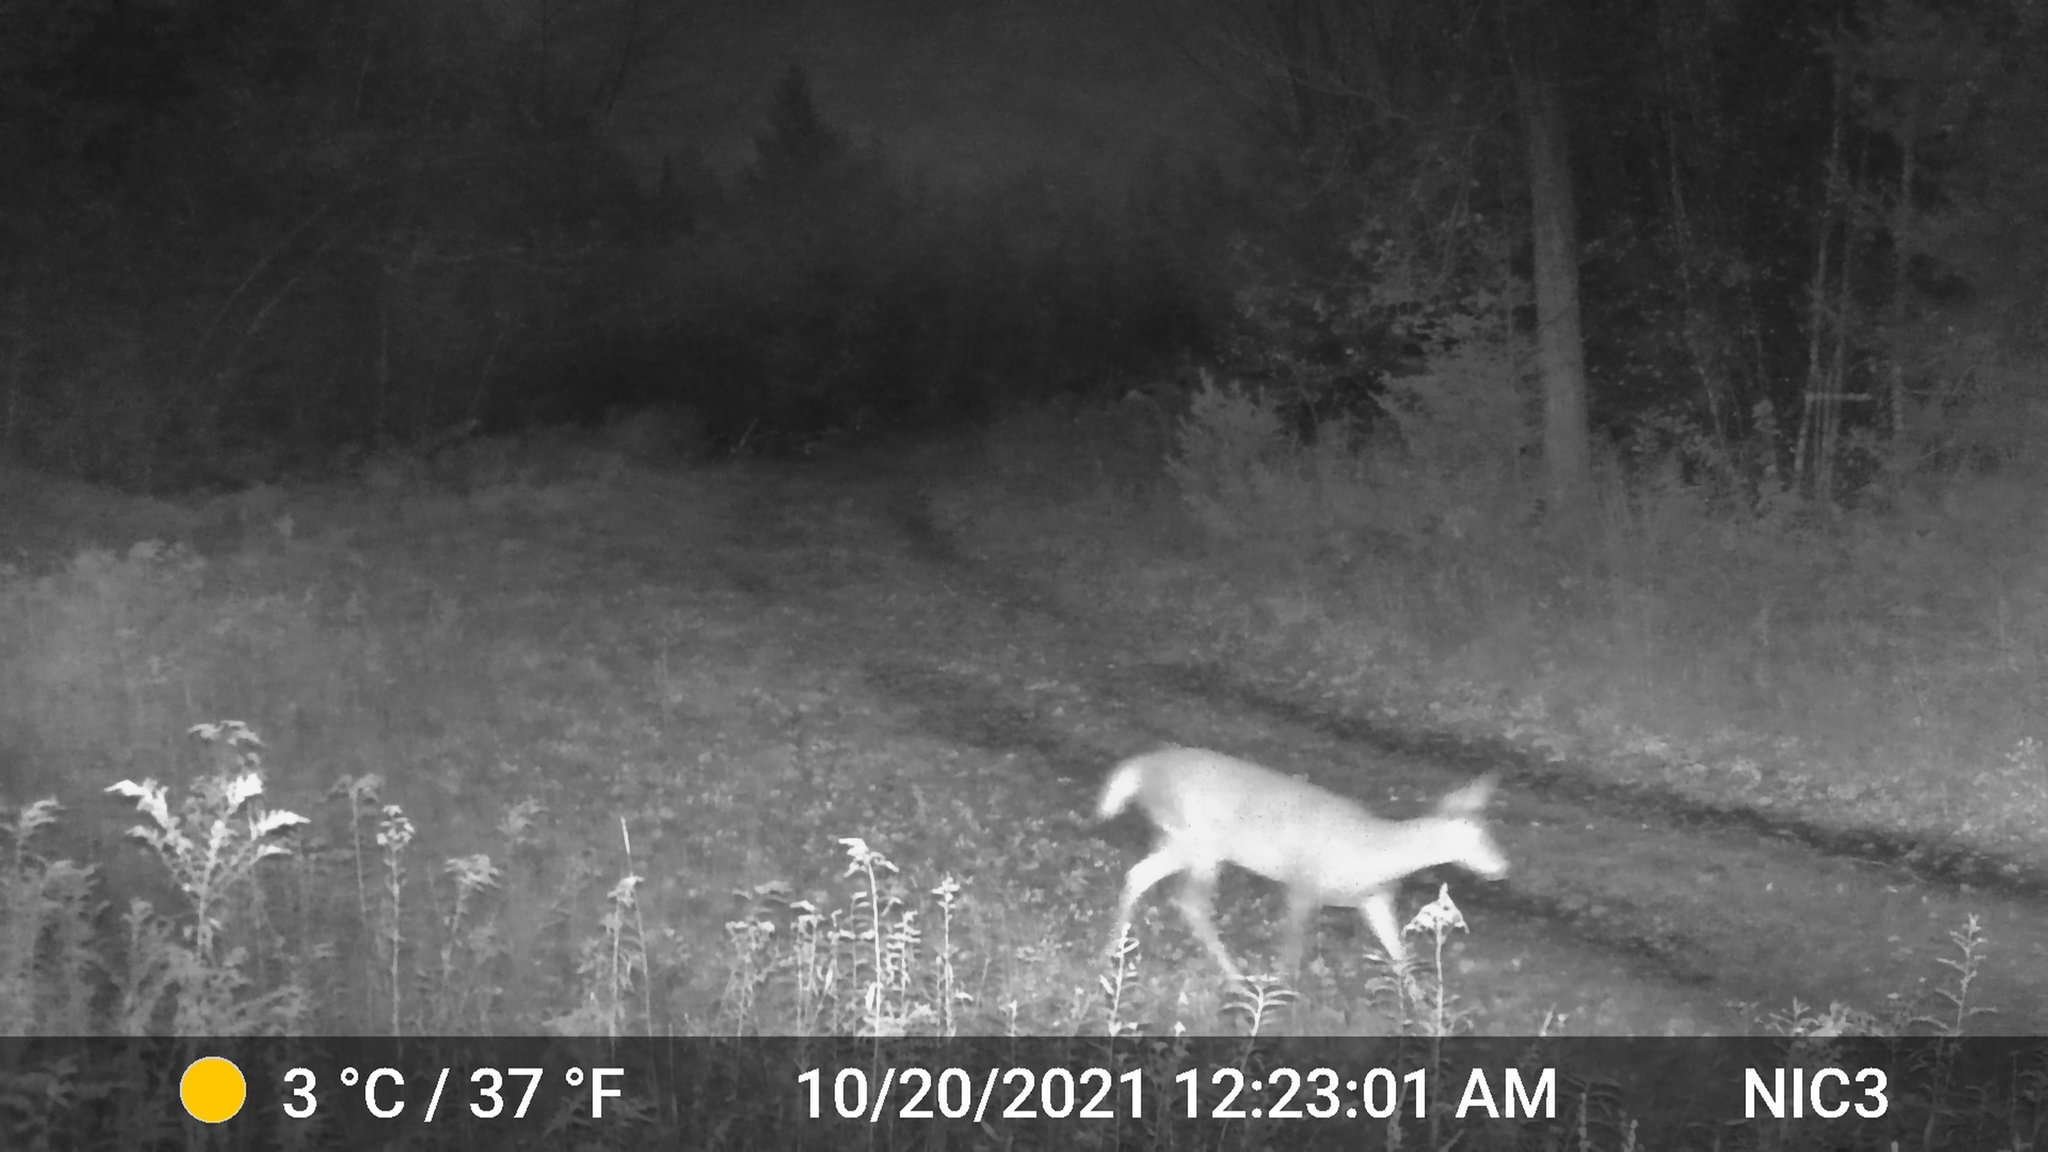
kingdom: Animalia
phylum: Chordata
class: Mammalia
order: Artiodactyla
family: Cervidae
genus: Odocoileus
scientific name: Odocoileus virginianus
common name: White-tailed deer
